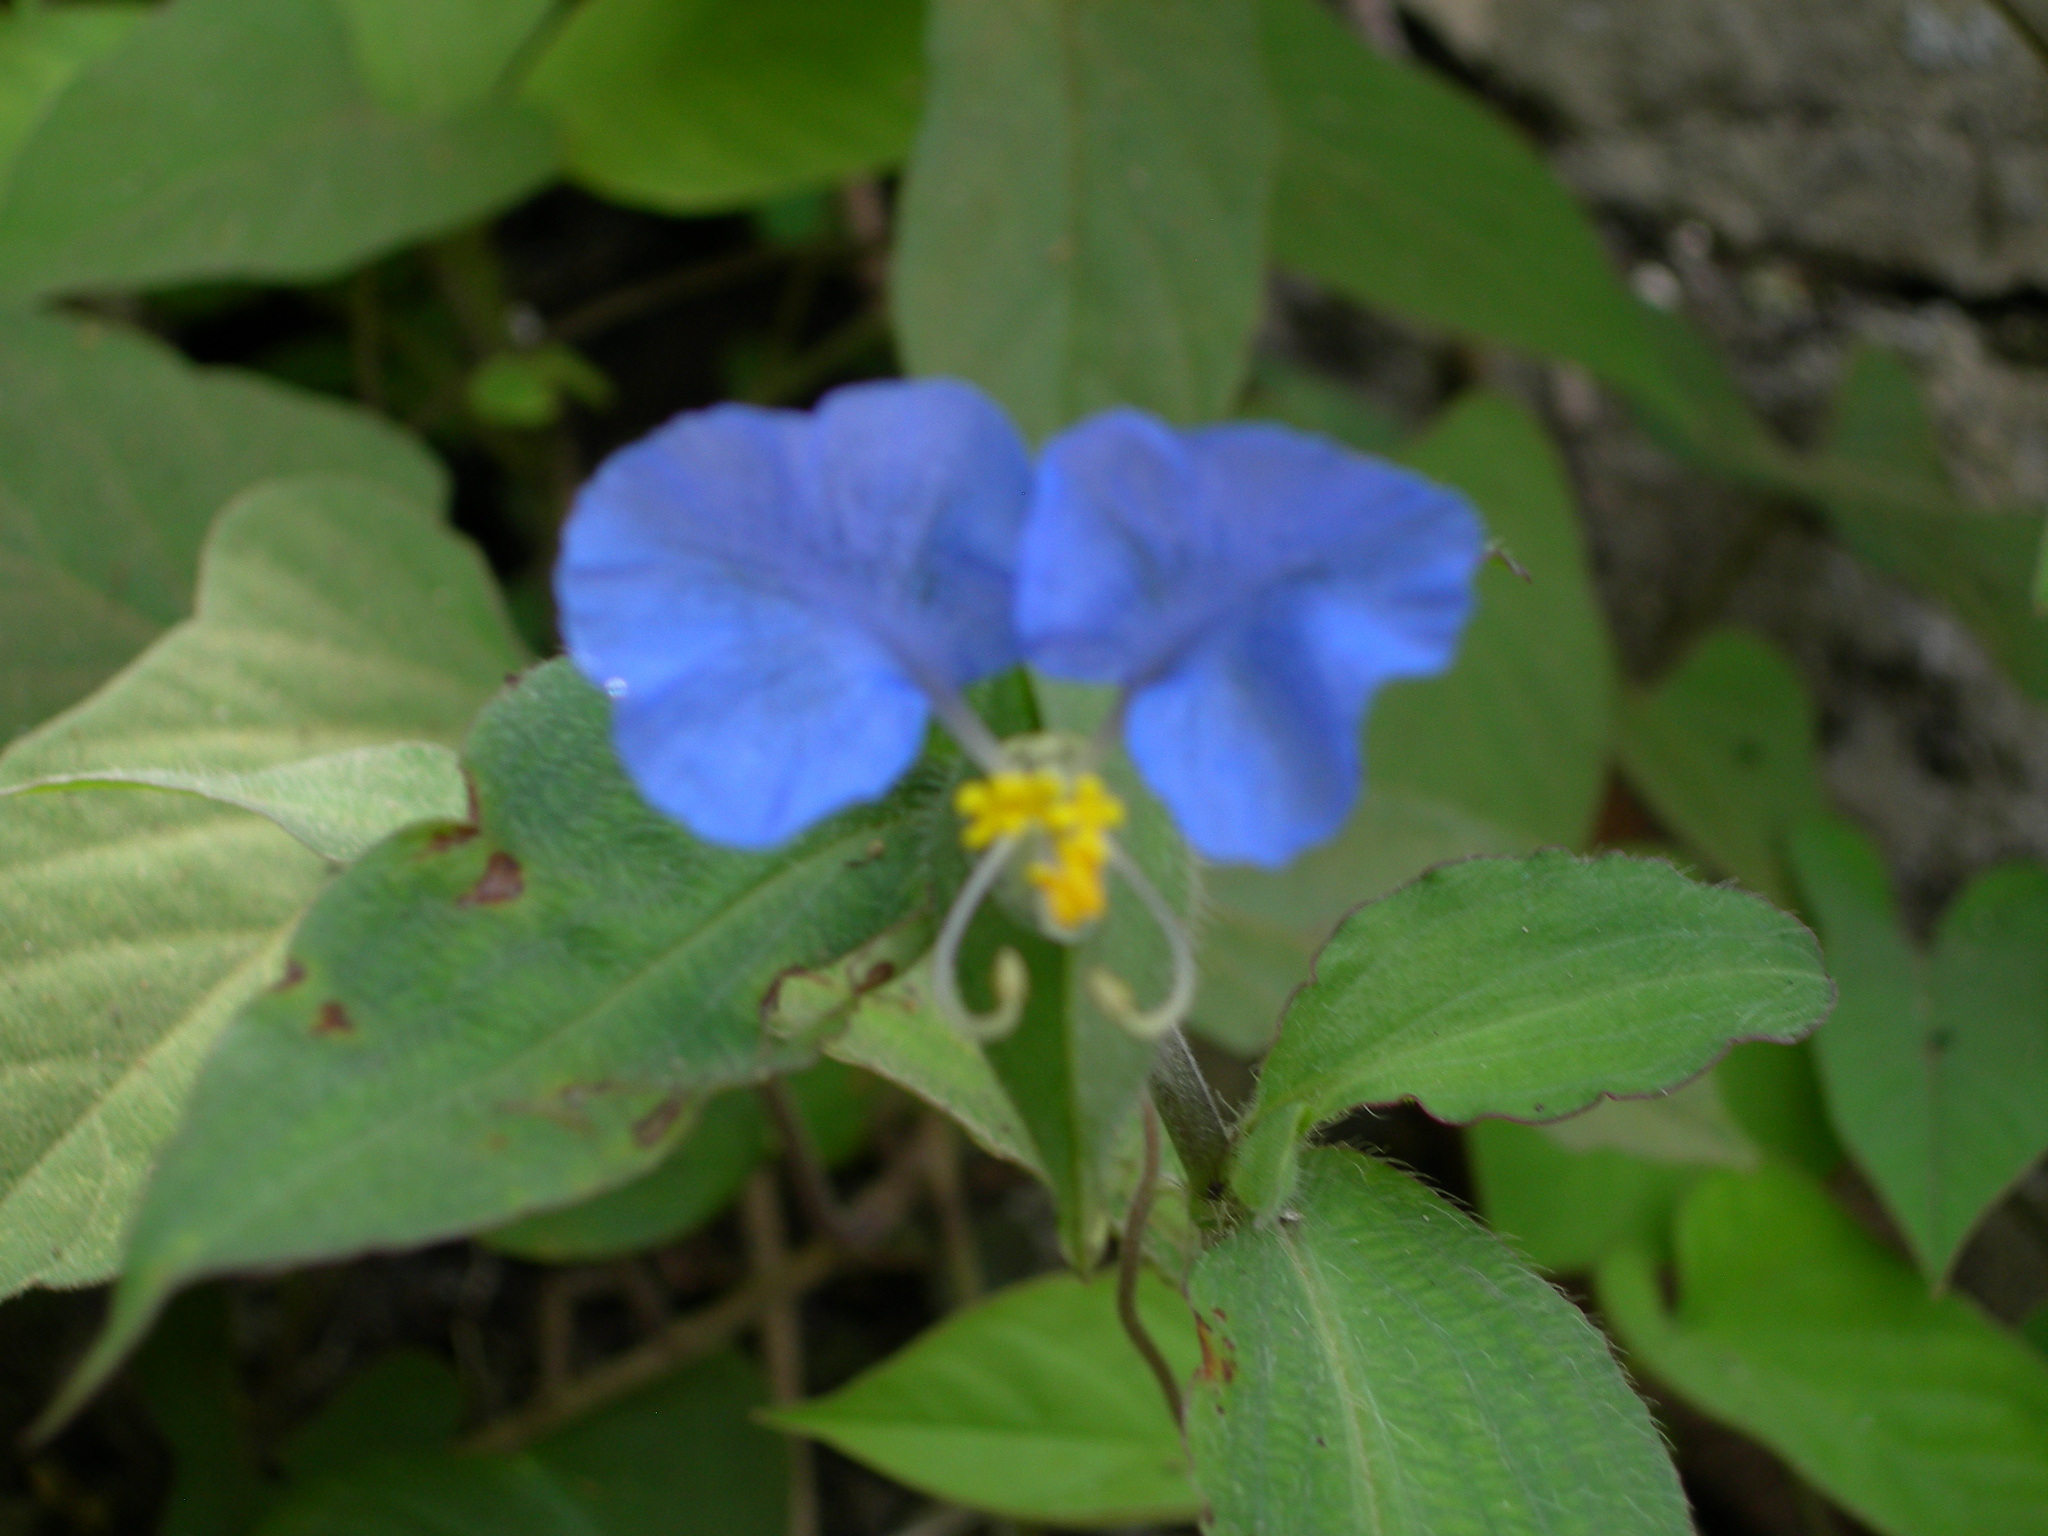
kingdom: Plantae
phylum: Tracheophyta
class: Liliopsida
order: Commelinales
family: Commelinaceae
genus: Commelina
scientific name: Commelina erecta
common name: Blousel blommetjie
